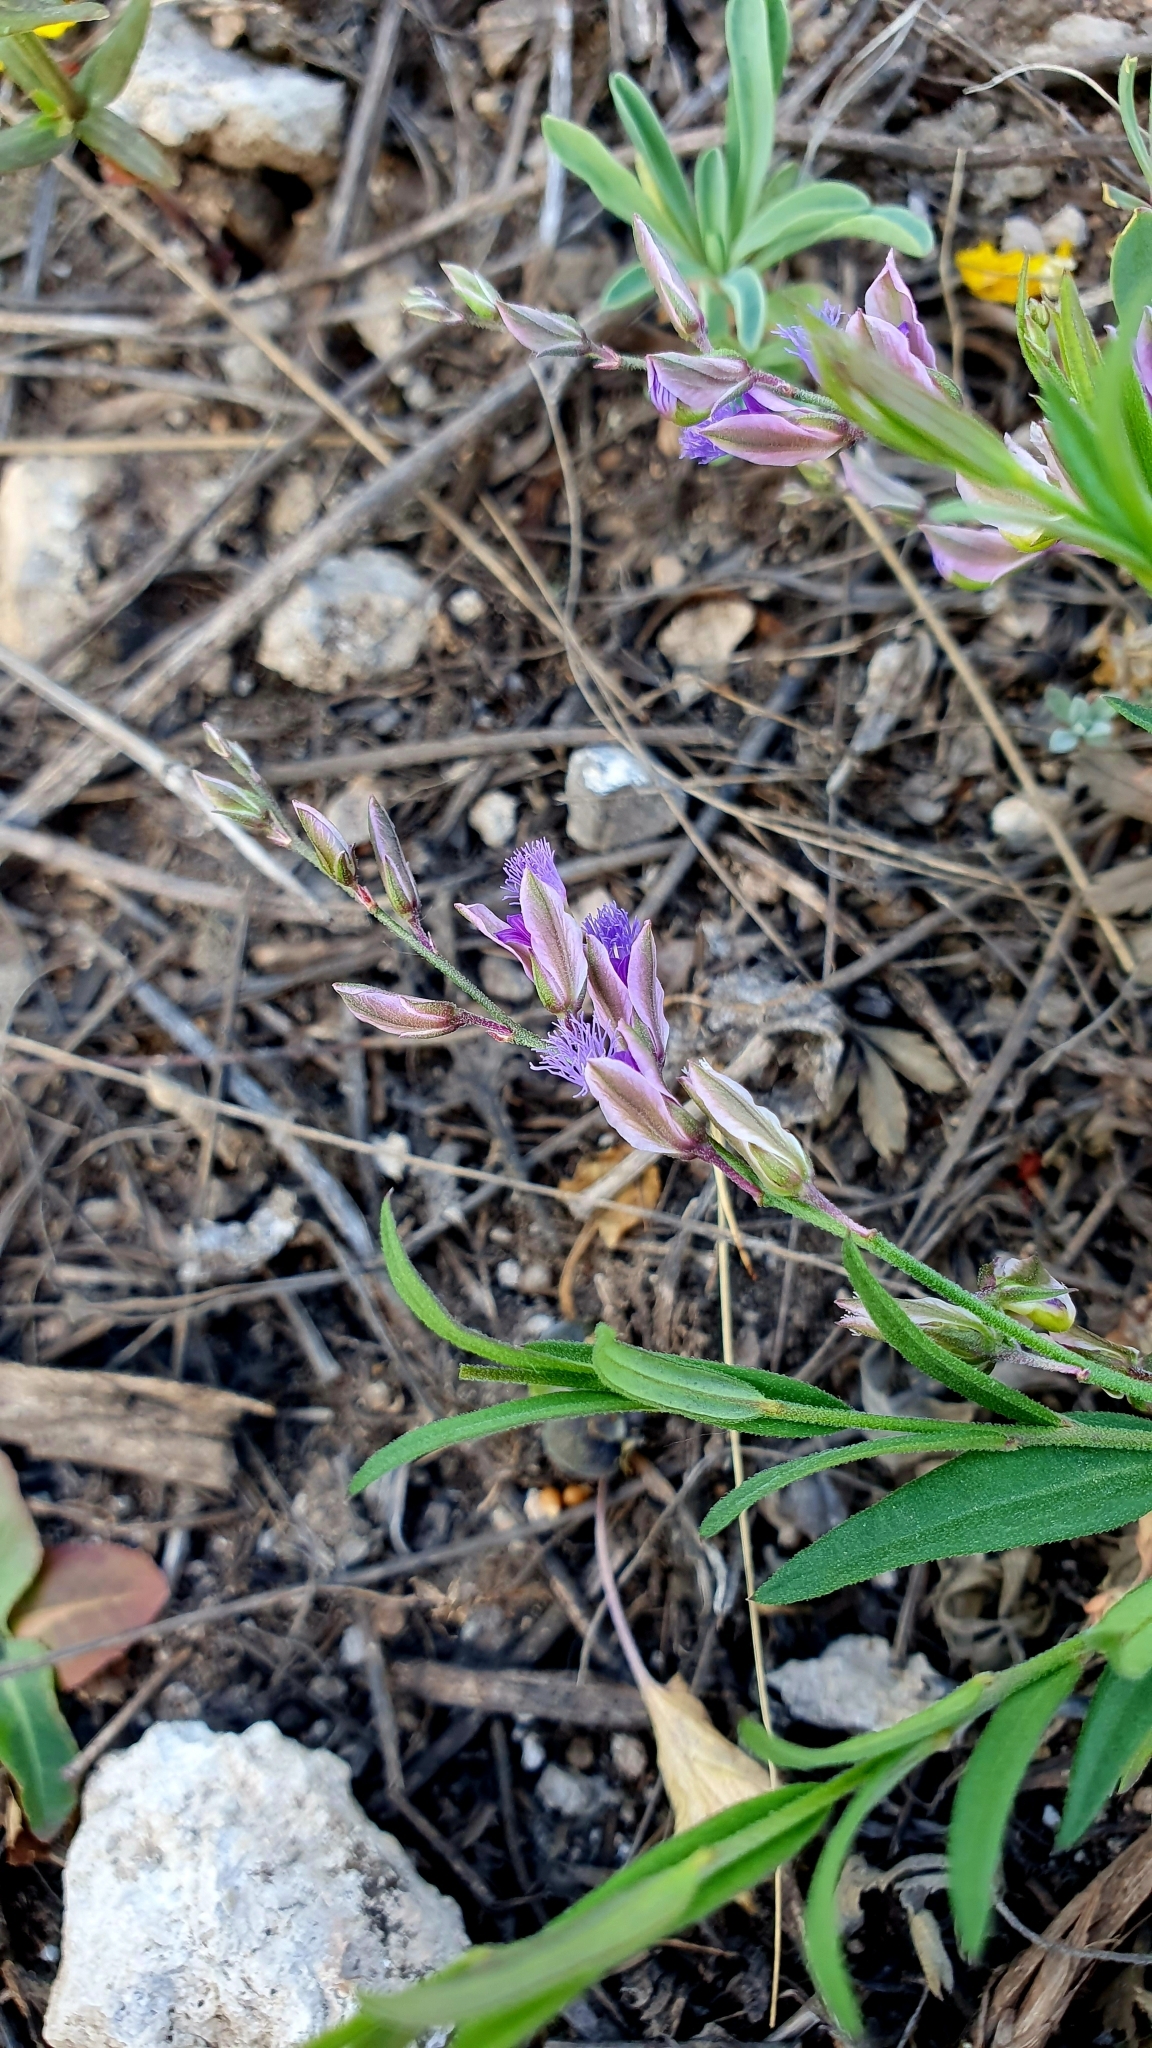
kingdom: Plantae
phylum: Tracheophyta
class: Magnoliopsida
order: Fabales
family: Polygalaceae
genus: Polygala
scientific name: Polygala sibirica
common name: Siberian polygala
